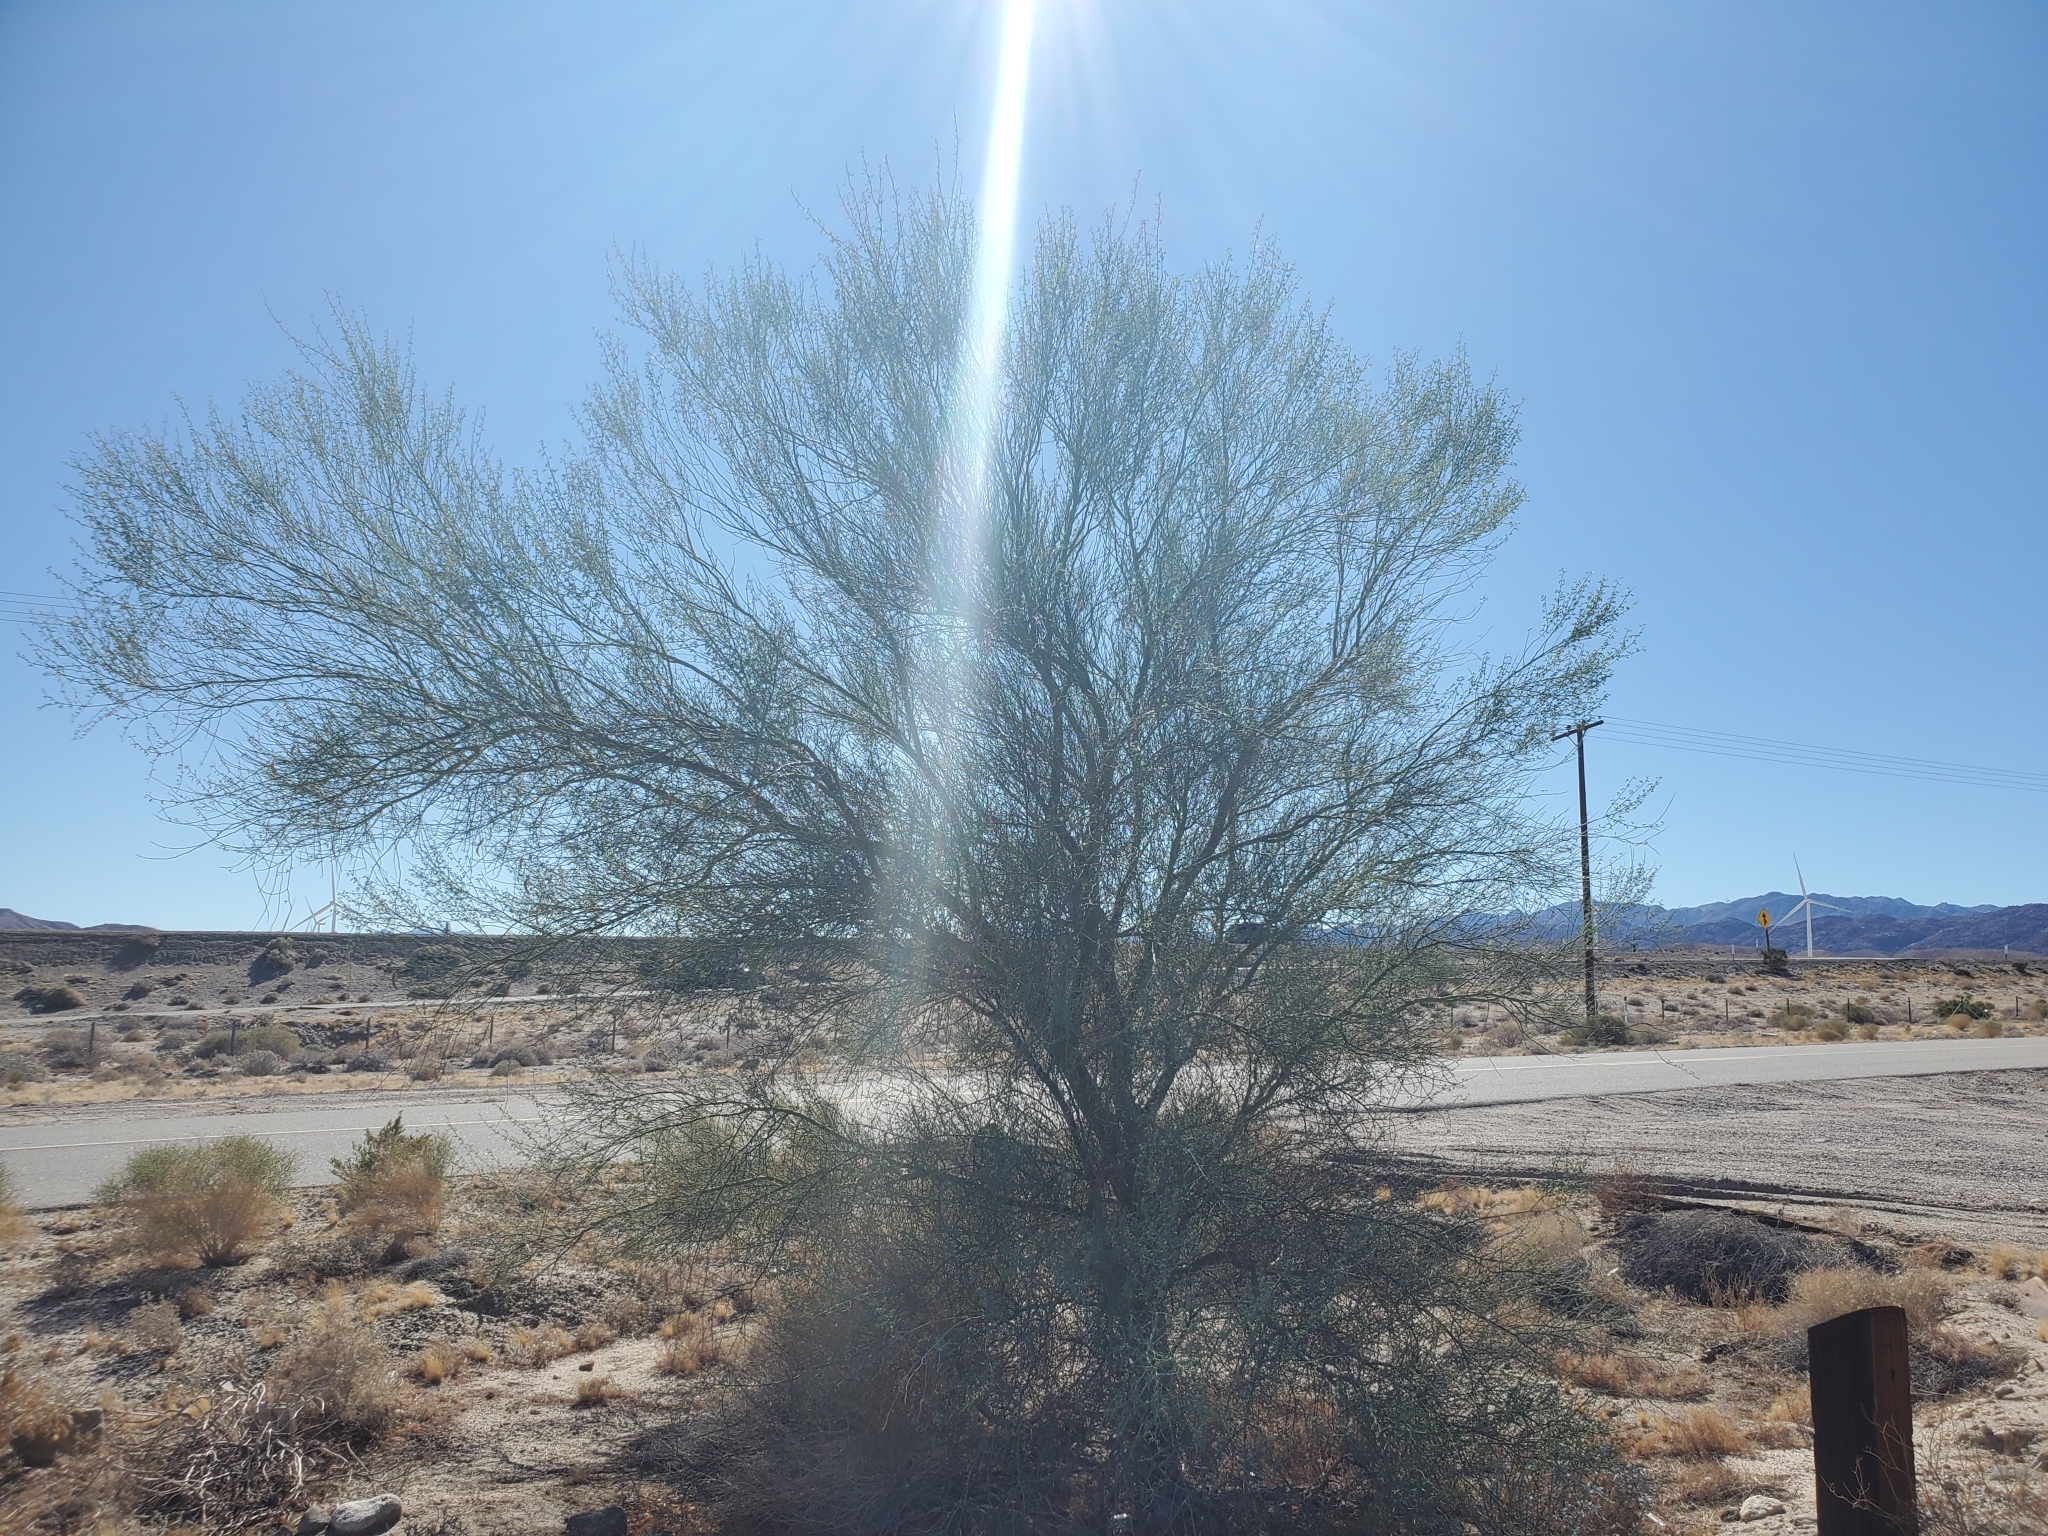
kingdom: Plantae
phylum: Tracheophyta
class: Magnoliopsida
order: Fabales
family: Fabaceae
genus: Parkinsonia
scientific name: Parkinsonia florida
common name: Blue paloverde
